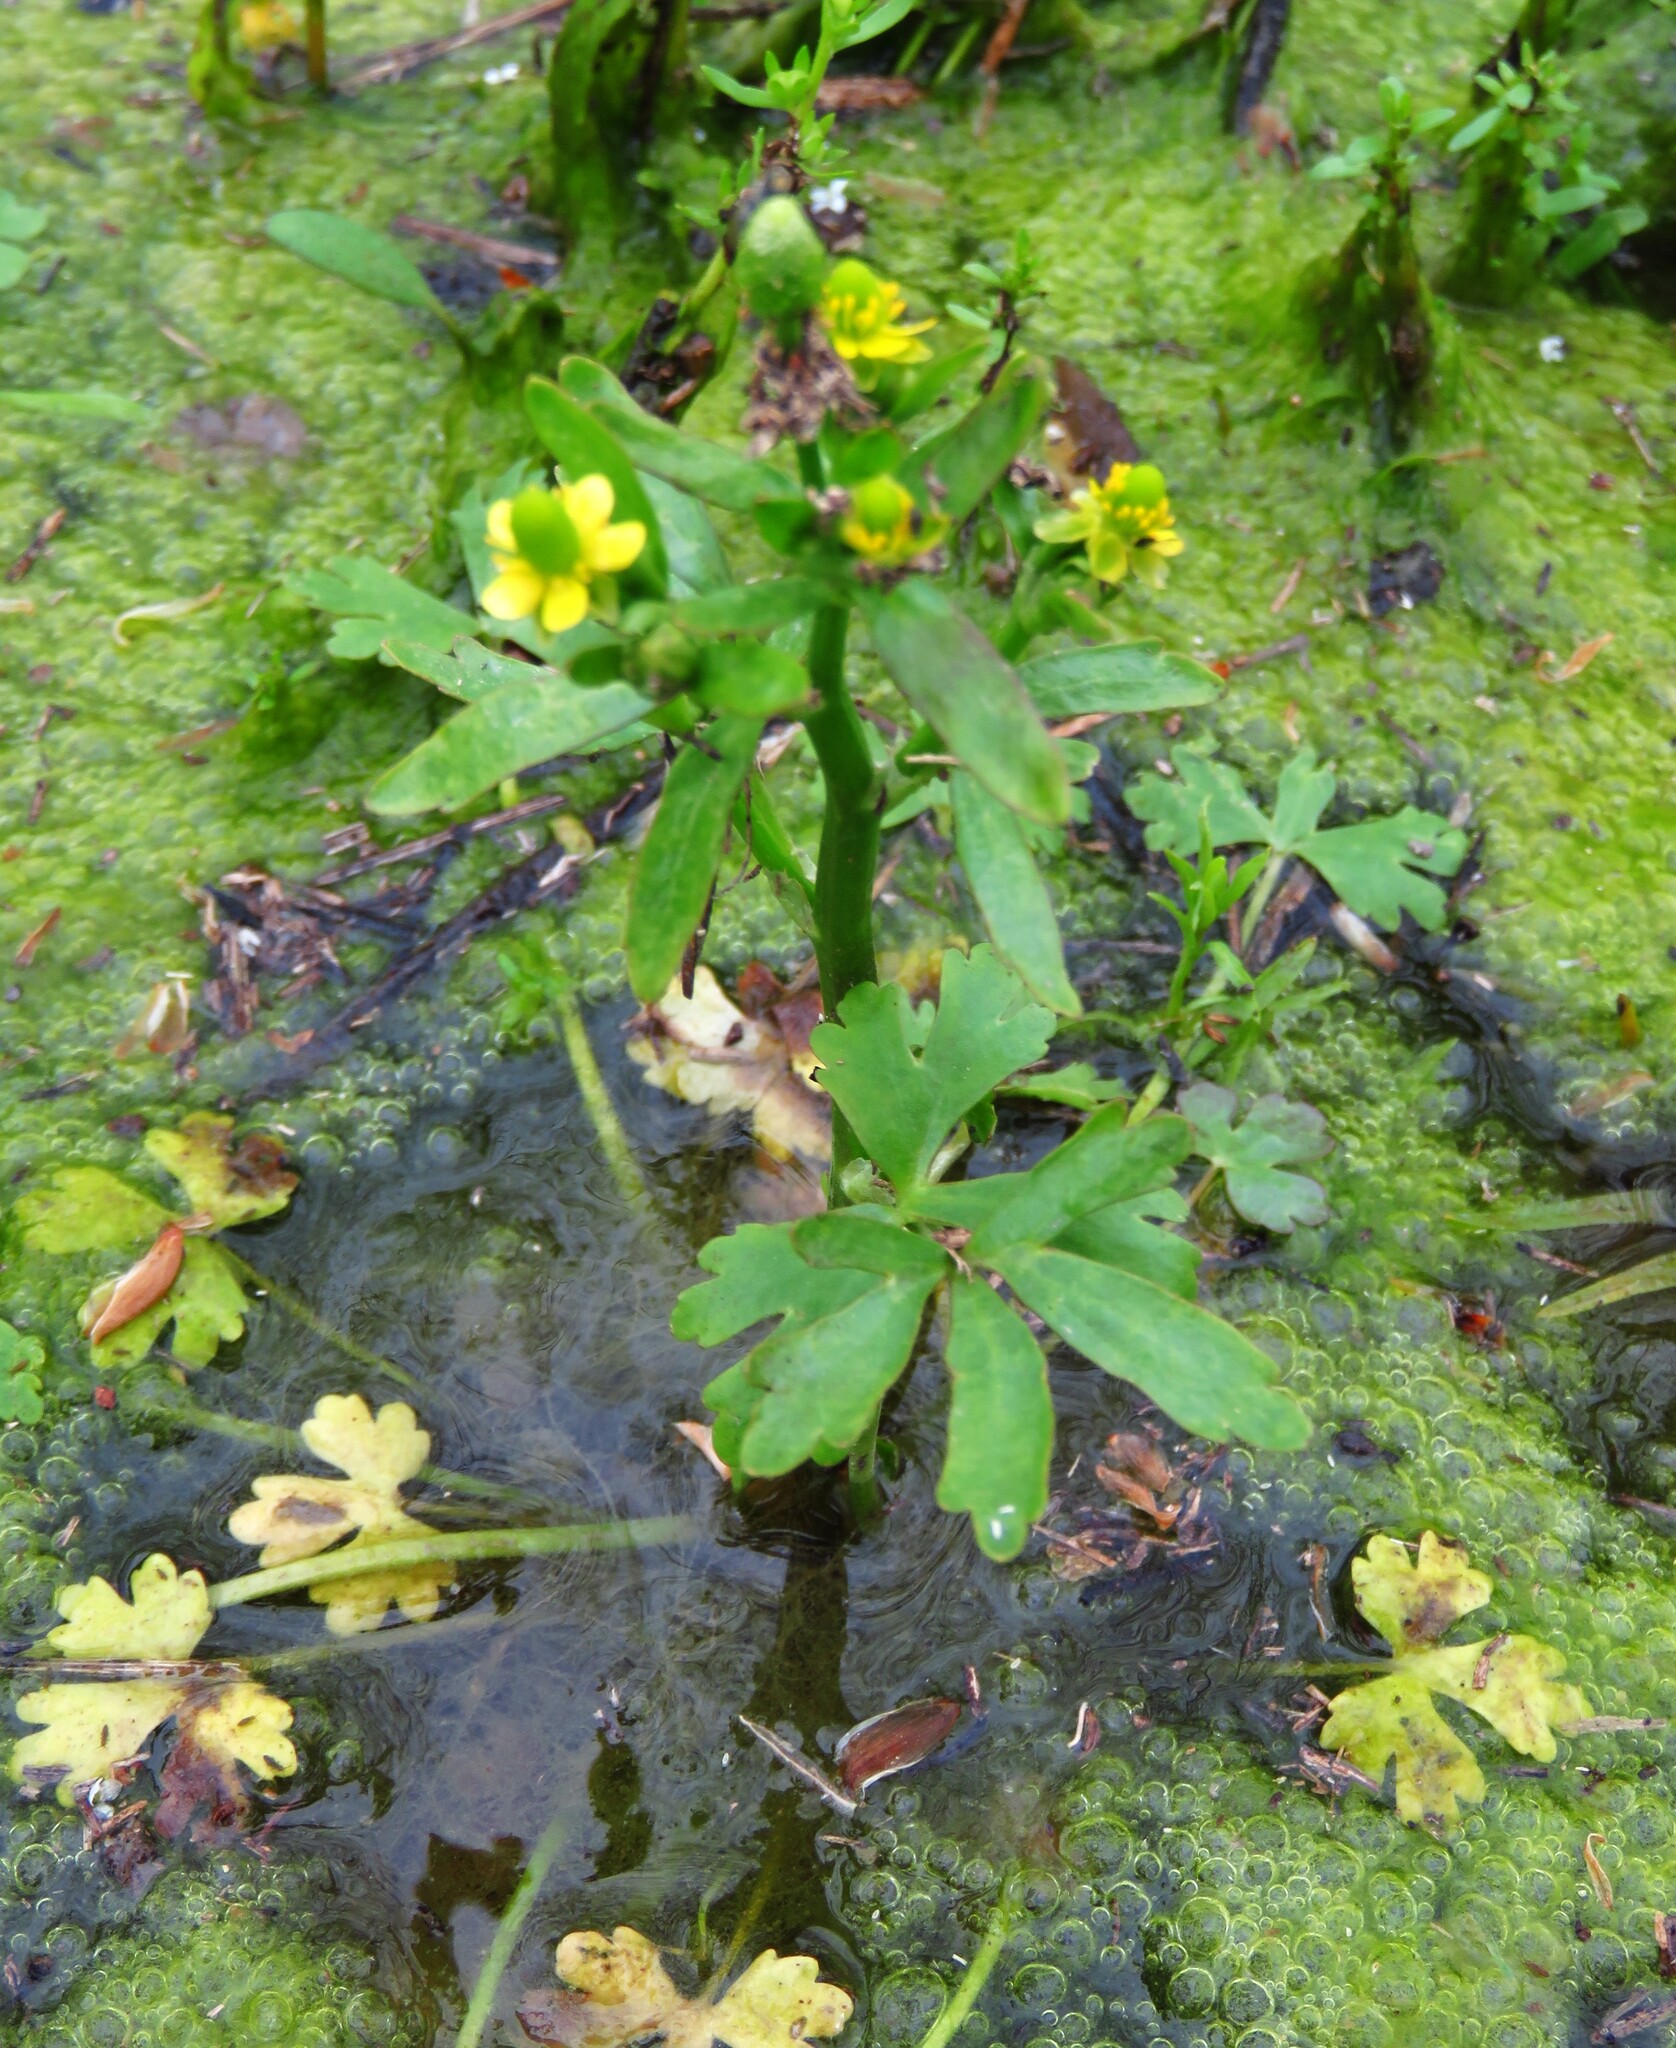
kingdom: Plantae
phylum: Tracheophyta
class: Magnoliopsida
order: Ranunculales
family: Ranunculaceae
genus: Ranunculus
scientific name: Ranunculus sceleratus
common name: Celery-leaved buttercup
